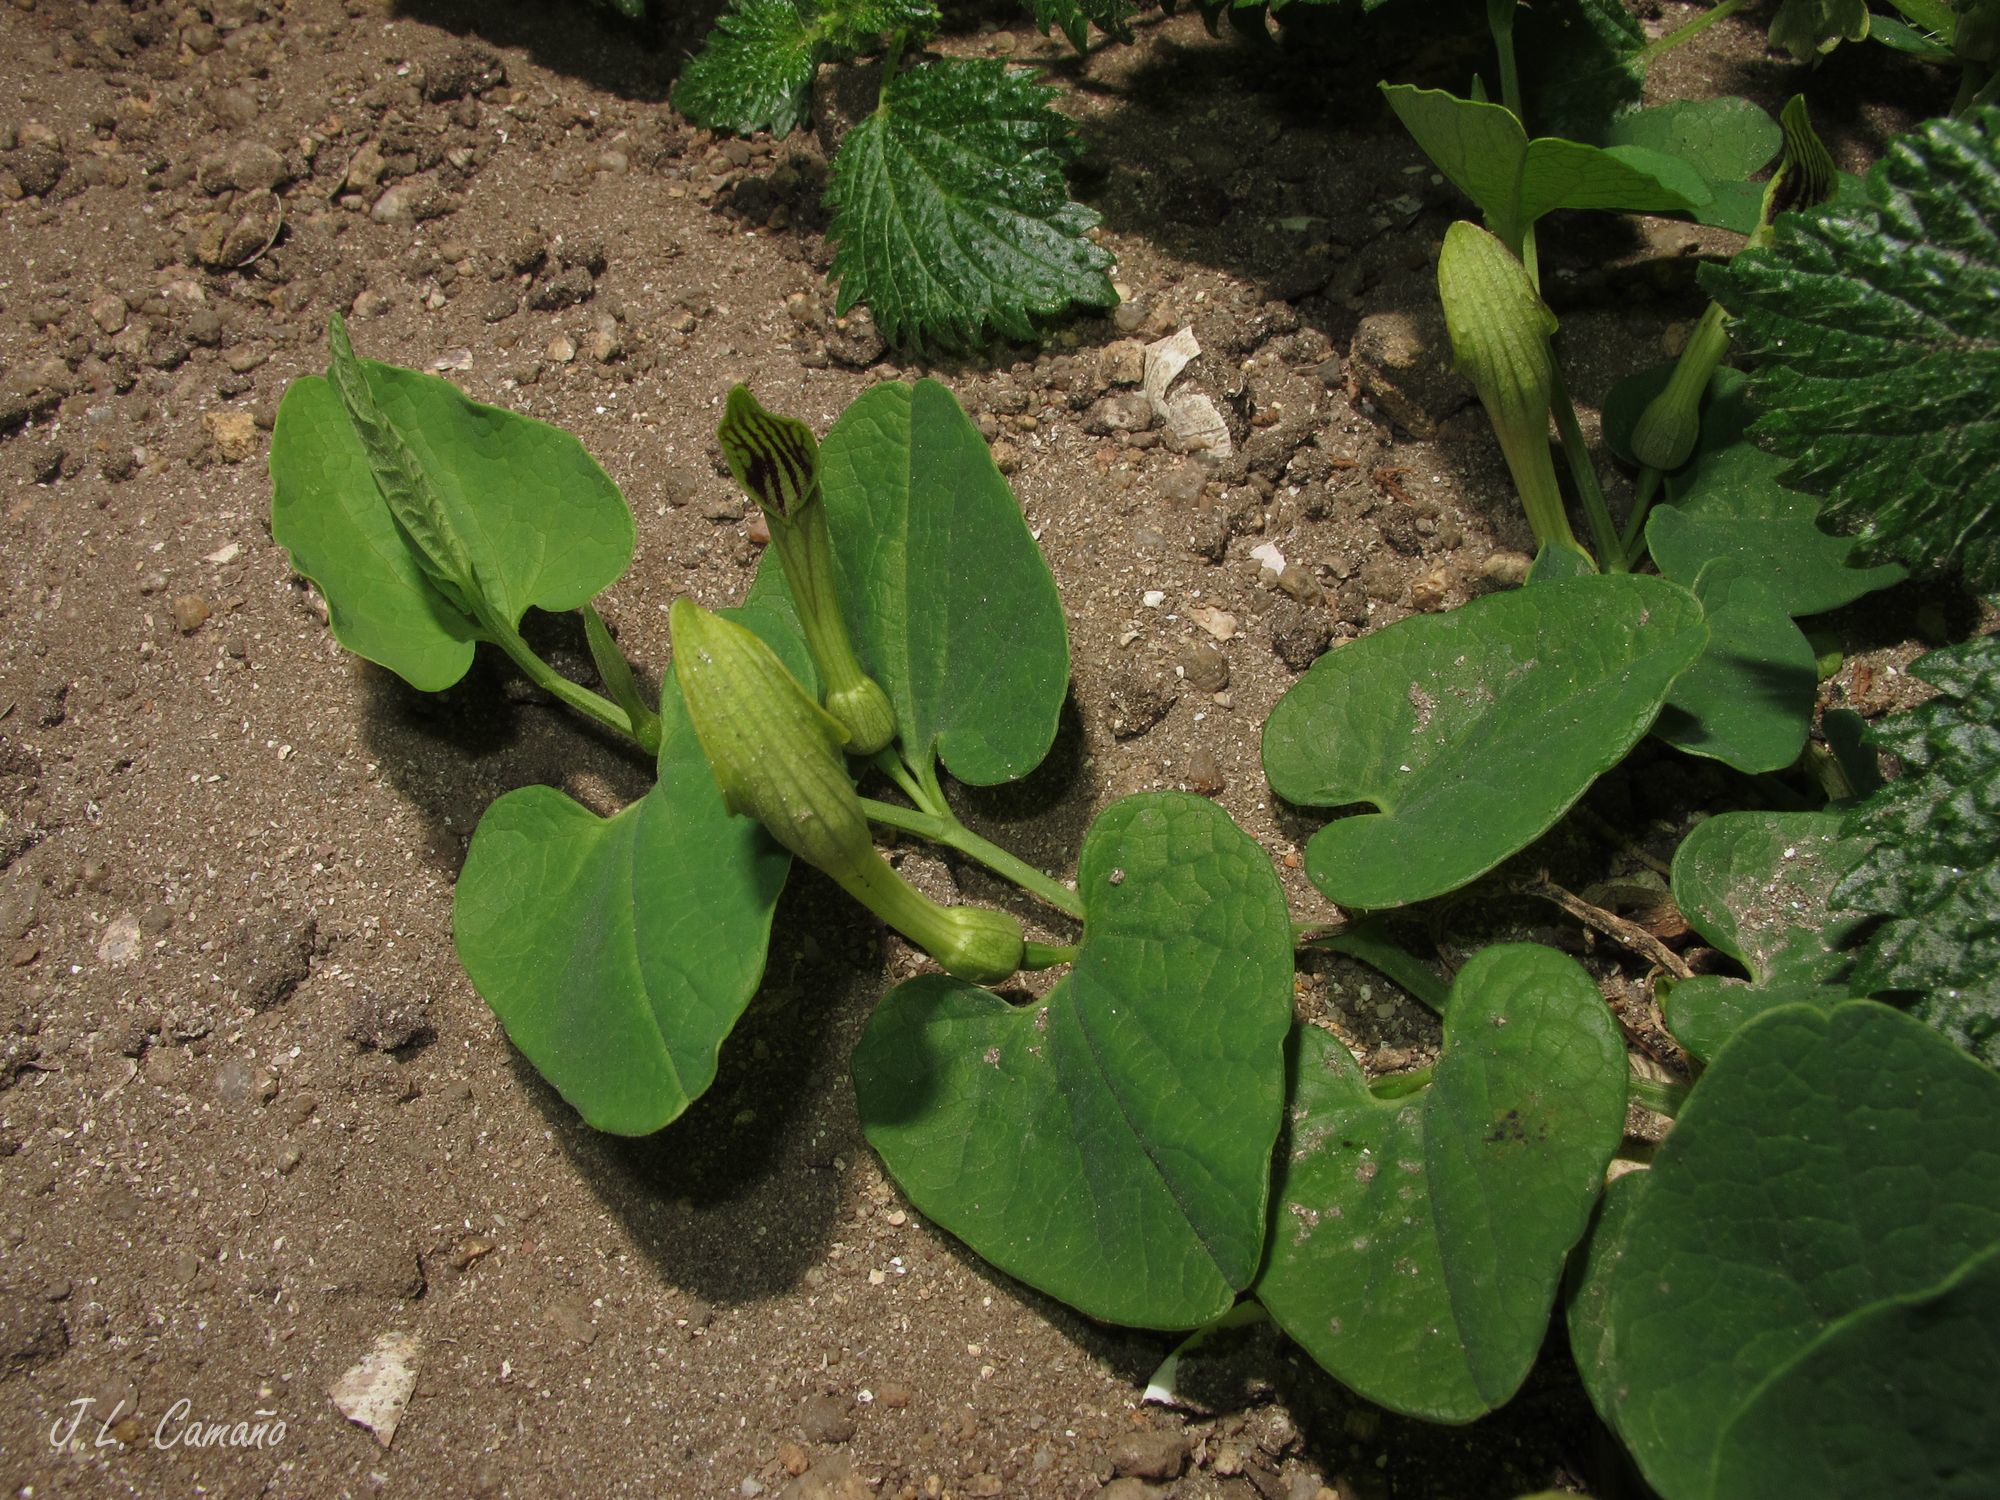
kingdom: Plantae
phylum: Tracheophyta
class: Magnoliopsida
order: Piperales
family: Aristolochiaceae
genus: Aristolochia
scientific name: Aristolochia paucinervis
